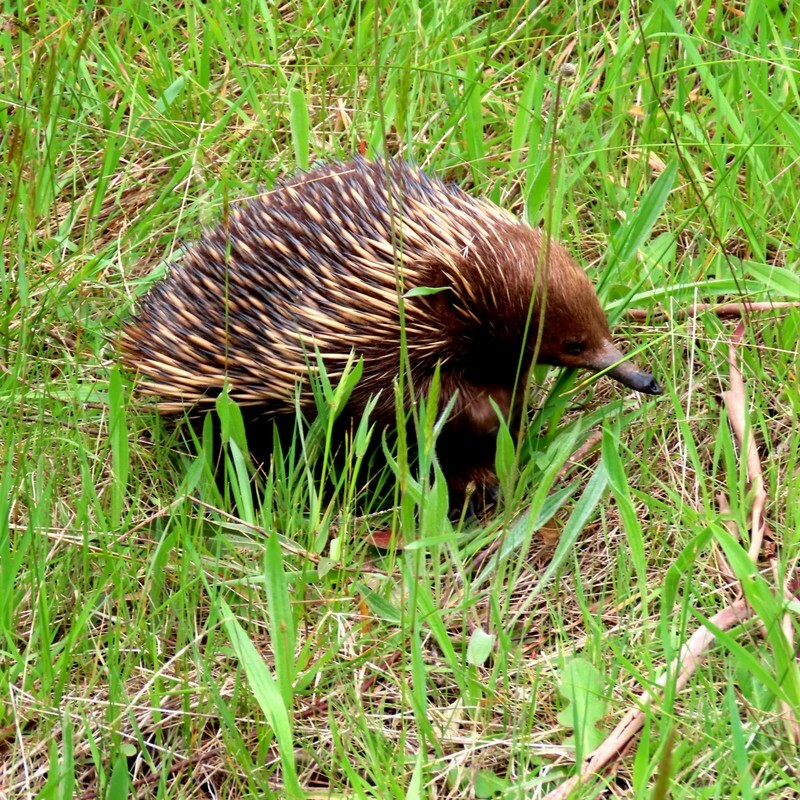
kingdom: Animalia
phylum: Chordata
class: Mammalia
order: Monotremata
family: Tachyglossidae
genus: Tachyglossus
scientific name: Tachyglossus aculeatus
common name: Short-beaked echidna
